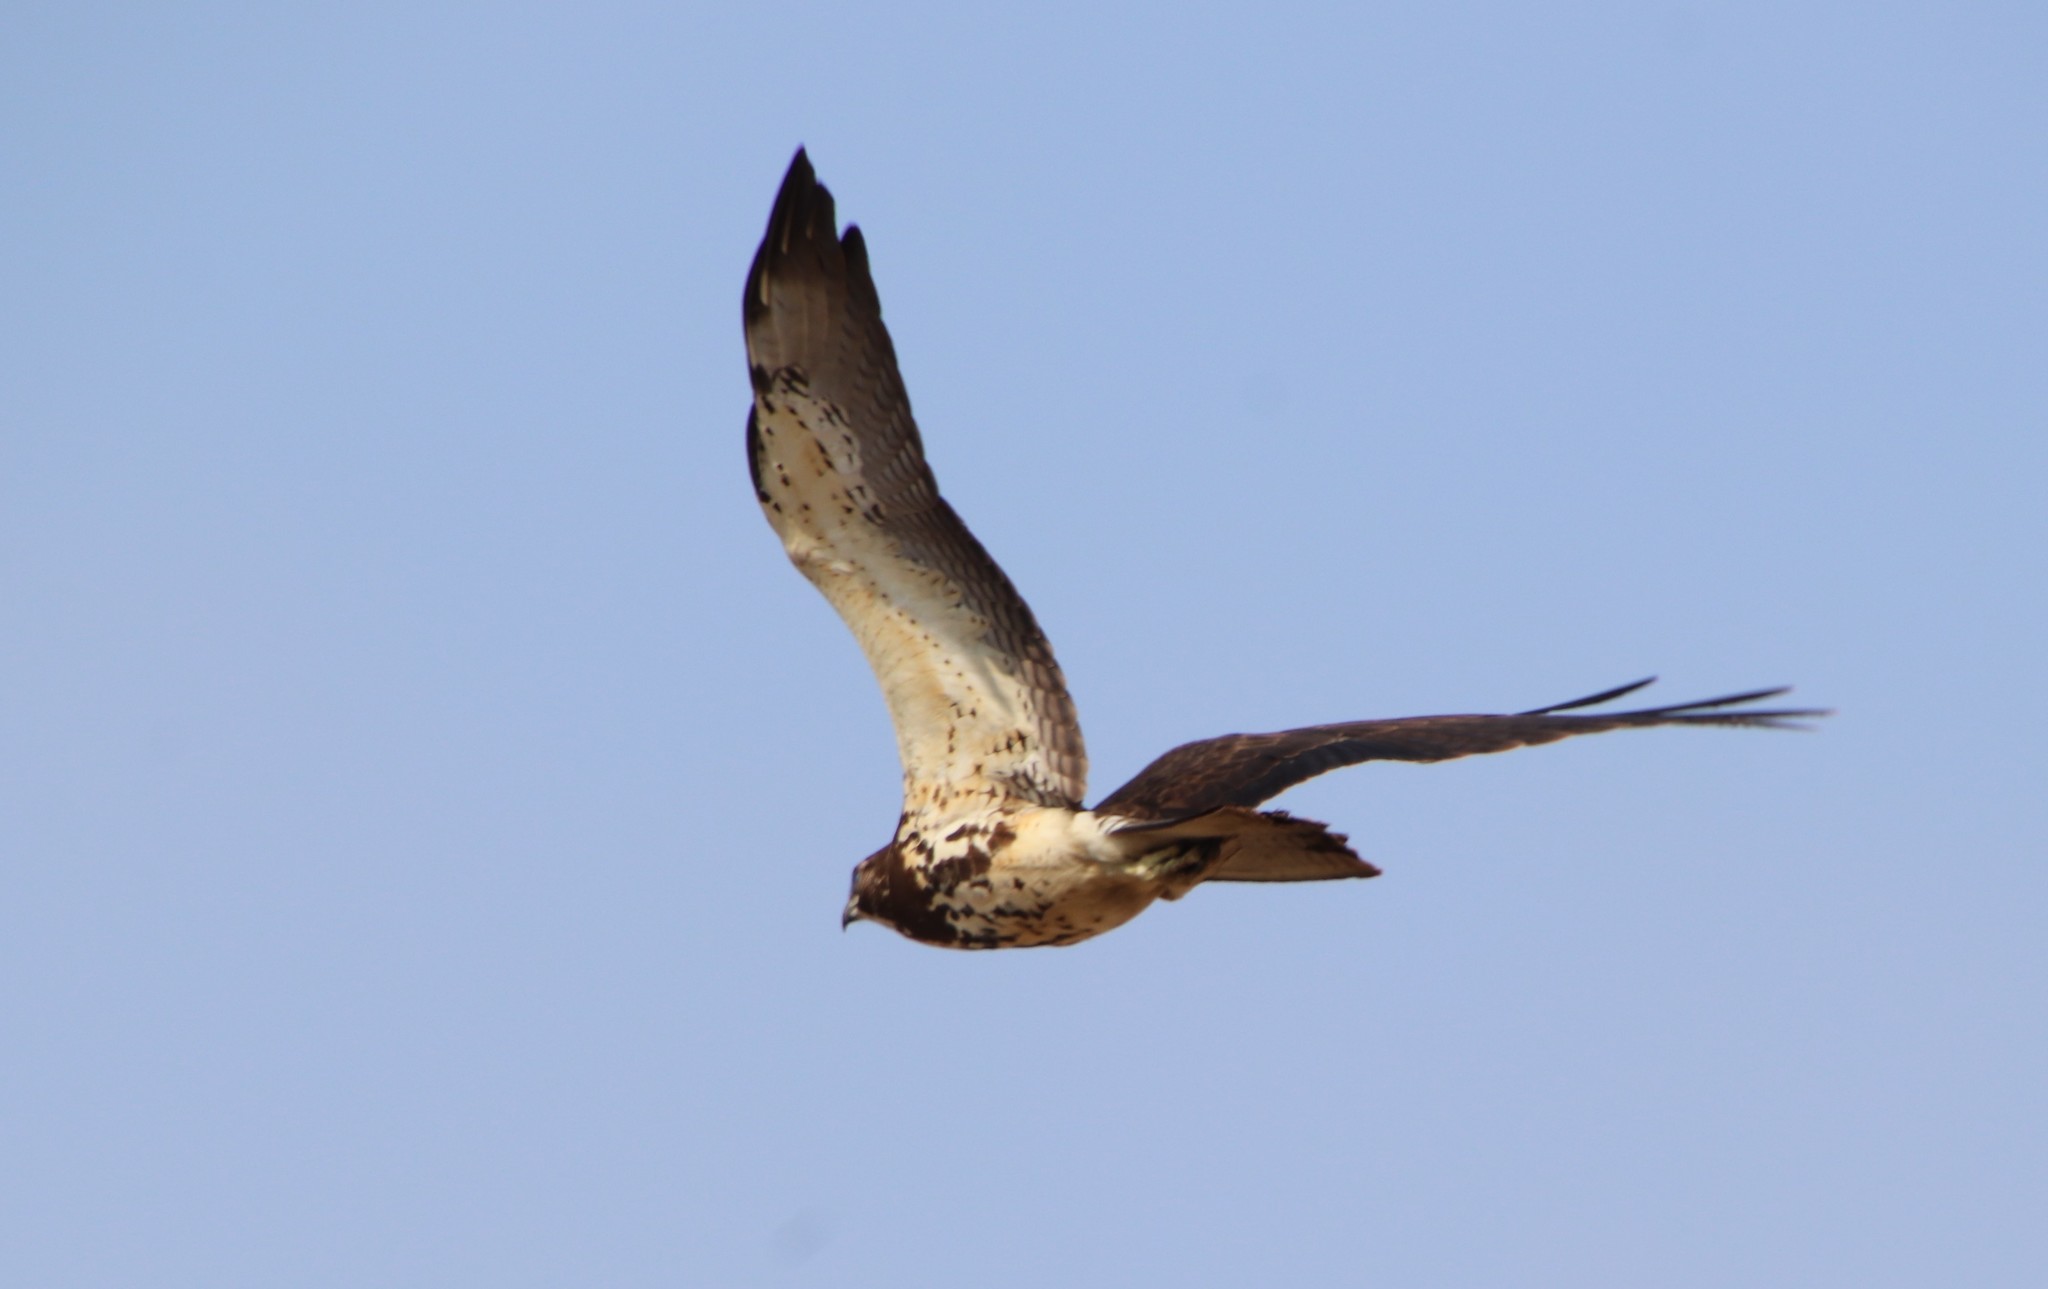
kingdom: Animalia
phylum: Chordata
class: Aves
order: Accipitriformes
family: Accipitridae
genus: Buteo
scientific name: Buteo swainsoni
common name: Swainson's hawk
